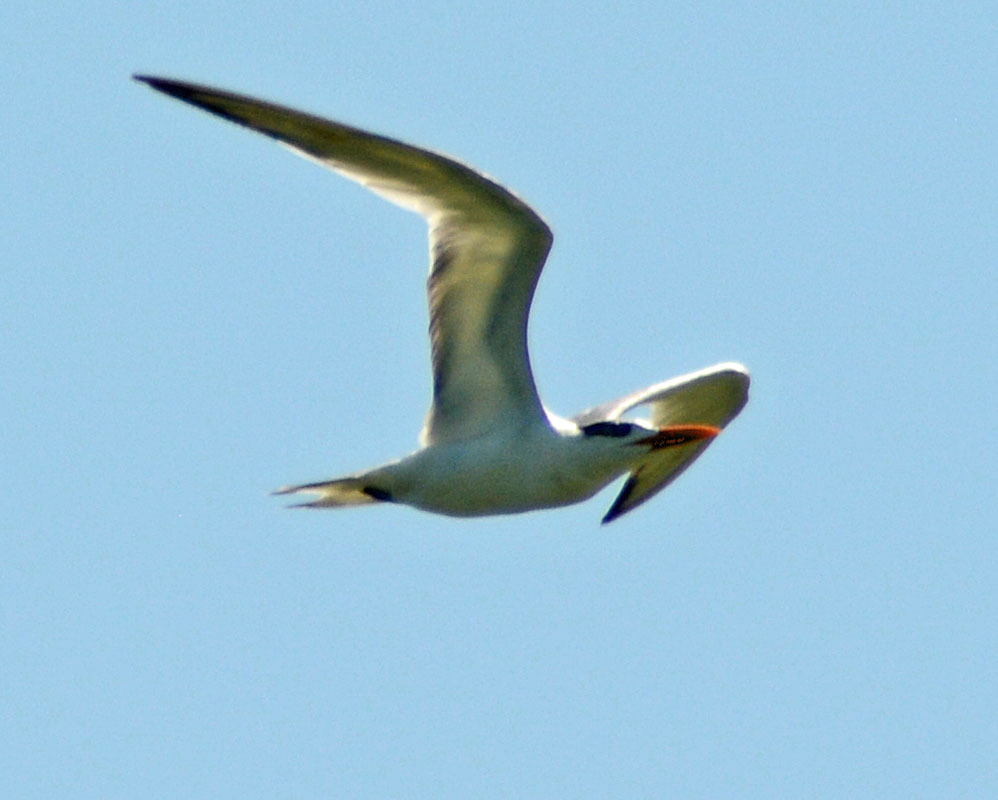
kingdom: Animalia
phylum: Chordata
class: Aves
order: Charadriiformes
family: Laridae
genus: Thalasseus
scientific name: Thalasseus maximus
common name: Royal tern
